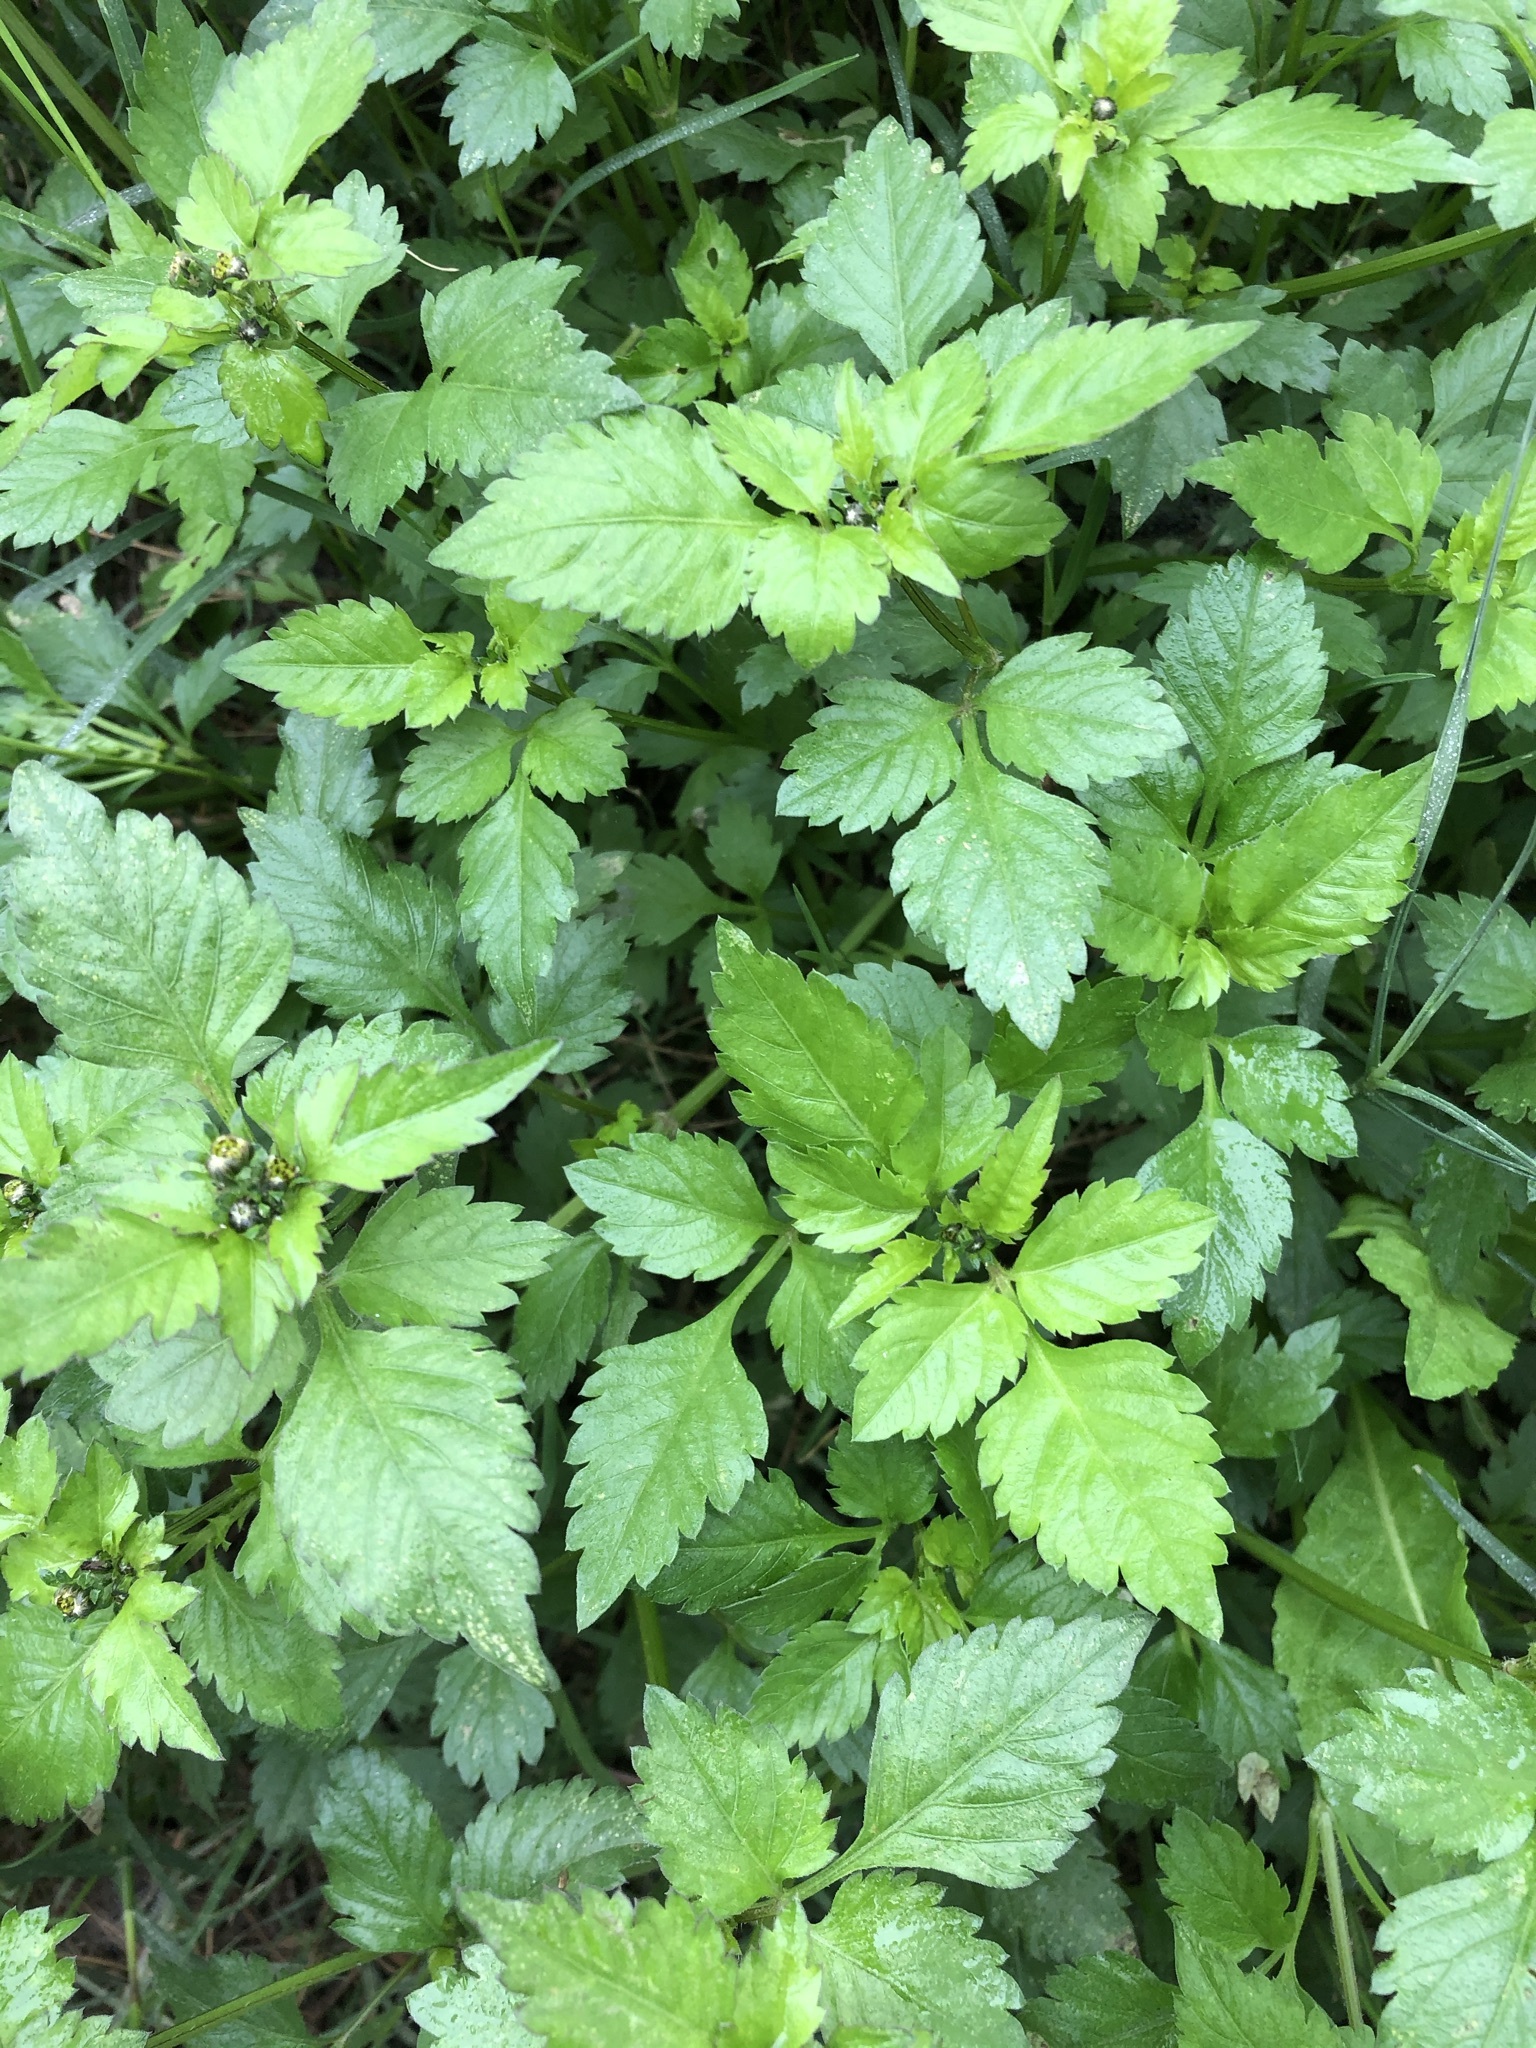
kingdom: Plantae
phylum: Tracheophyta
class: Magnoliopsida
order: Asterales
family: Asteraceae
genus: Bidens
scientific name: Bidens pilosa
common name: Black-jack
